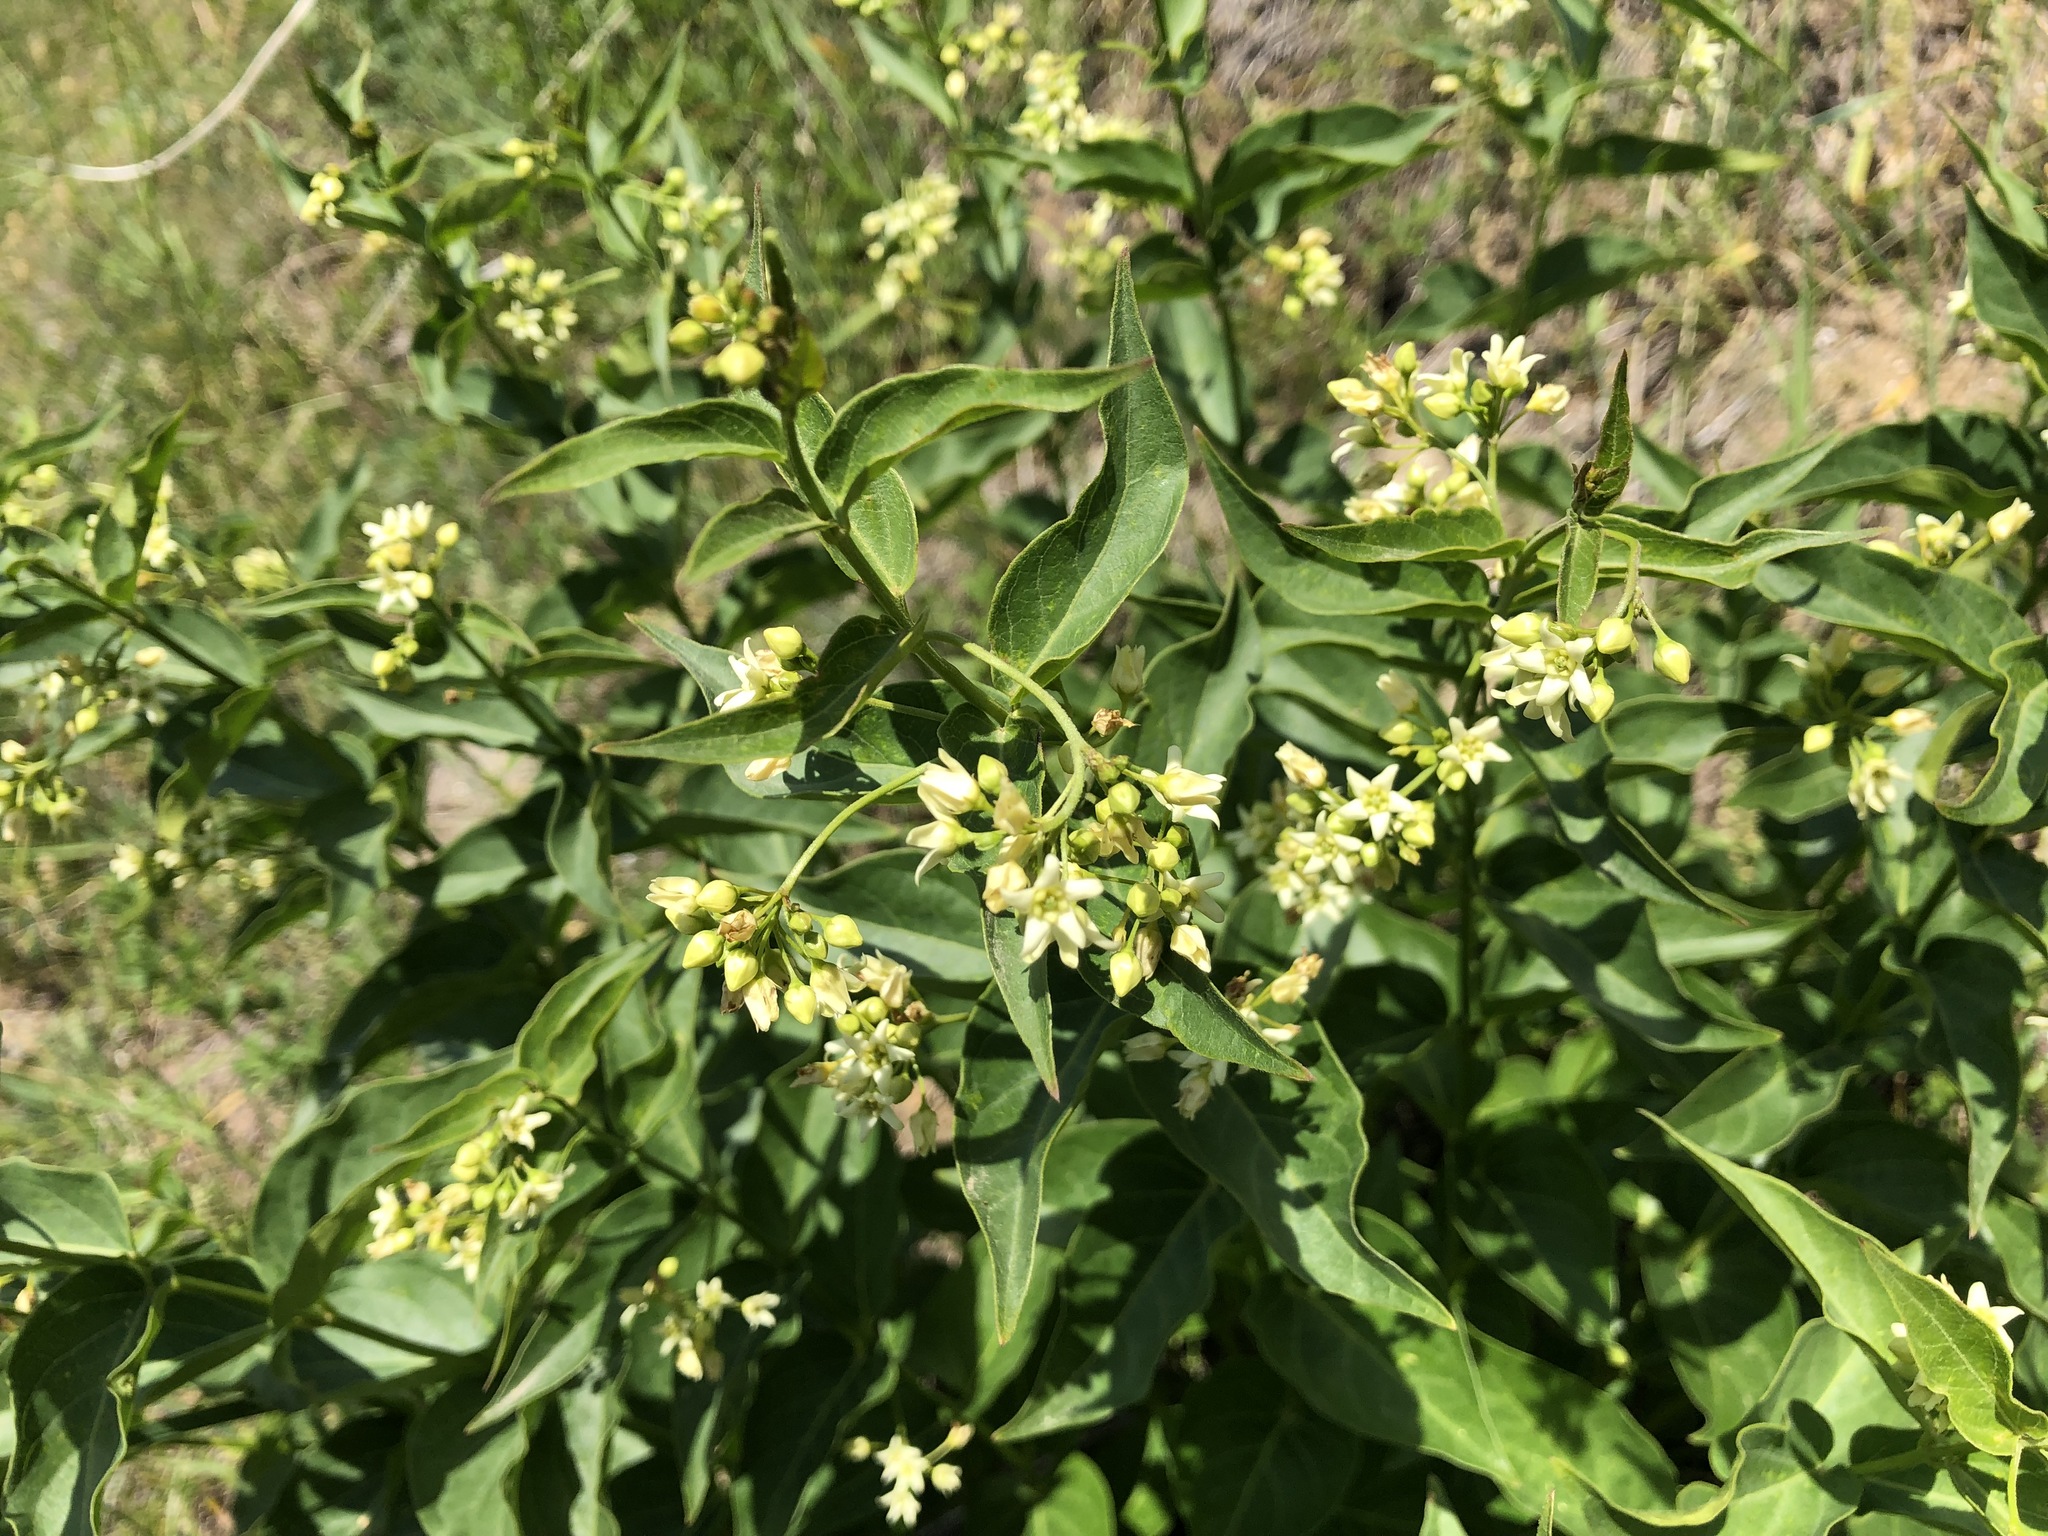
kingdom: Plantae
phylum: Tracheophyta
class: Magnoliopsida
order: Gentianales
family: Apocynaceae
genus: Vincetoxicum
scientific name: Vincetoxicum hirundinaria
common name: White swallowwort
